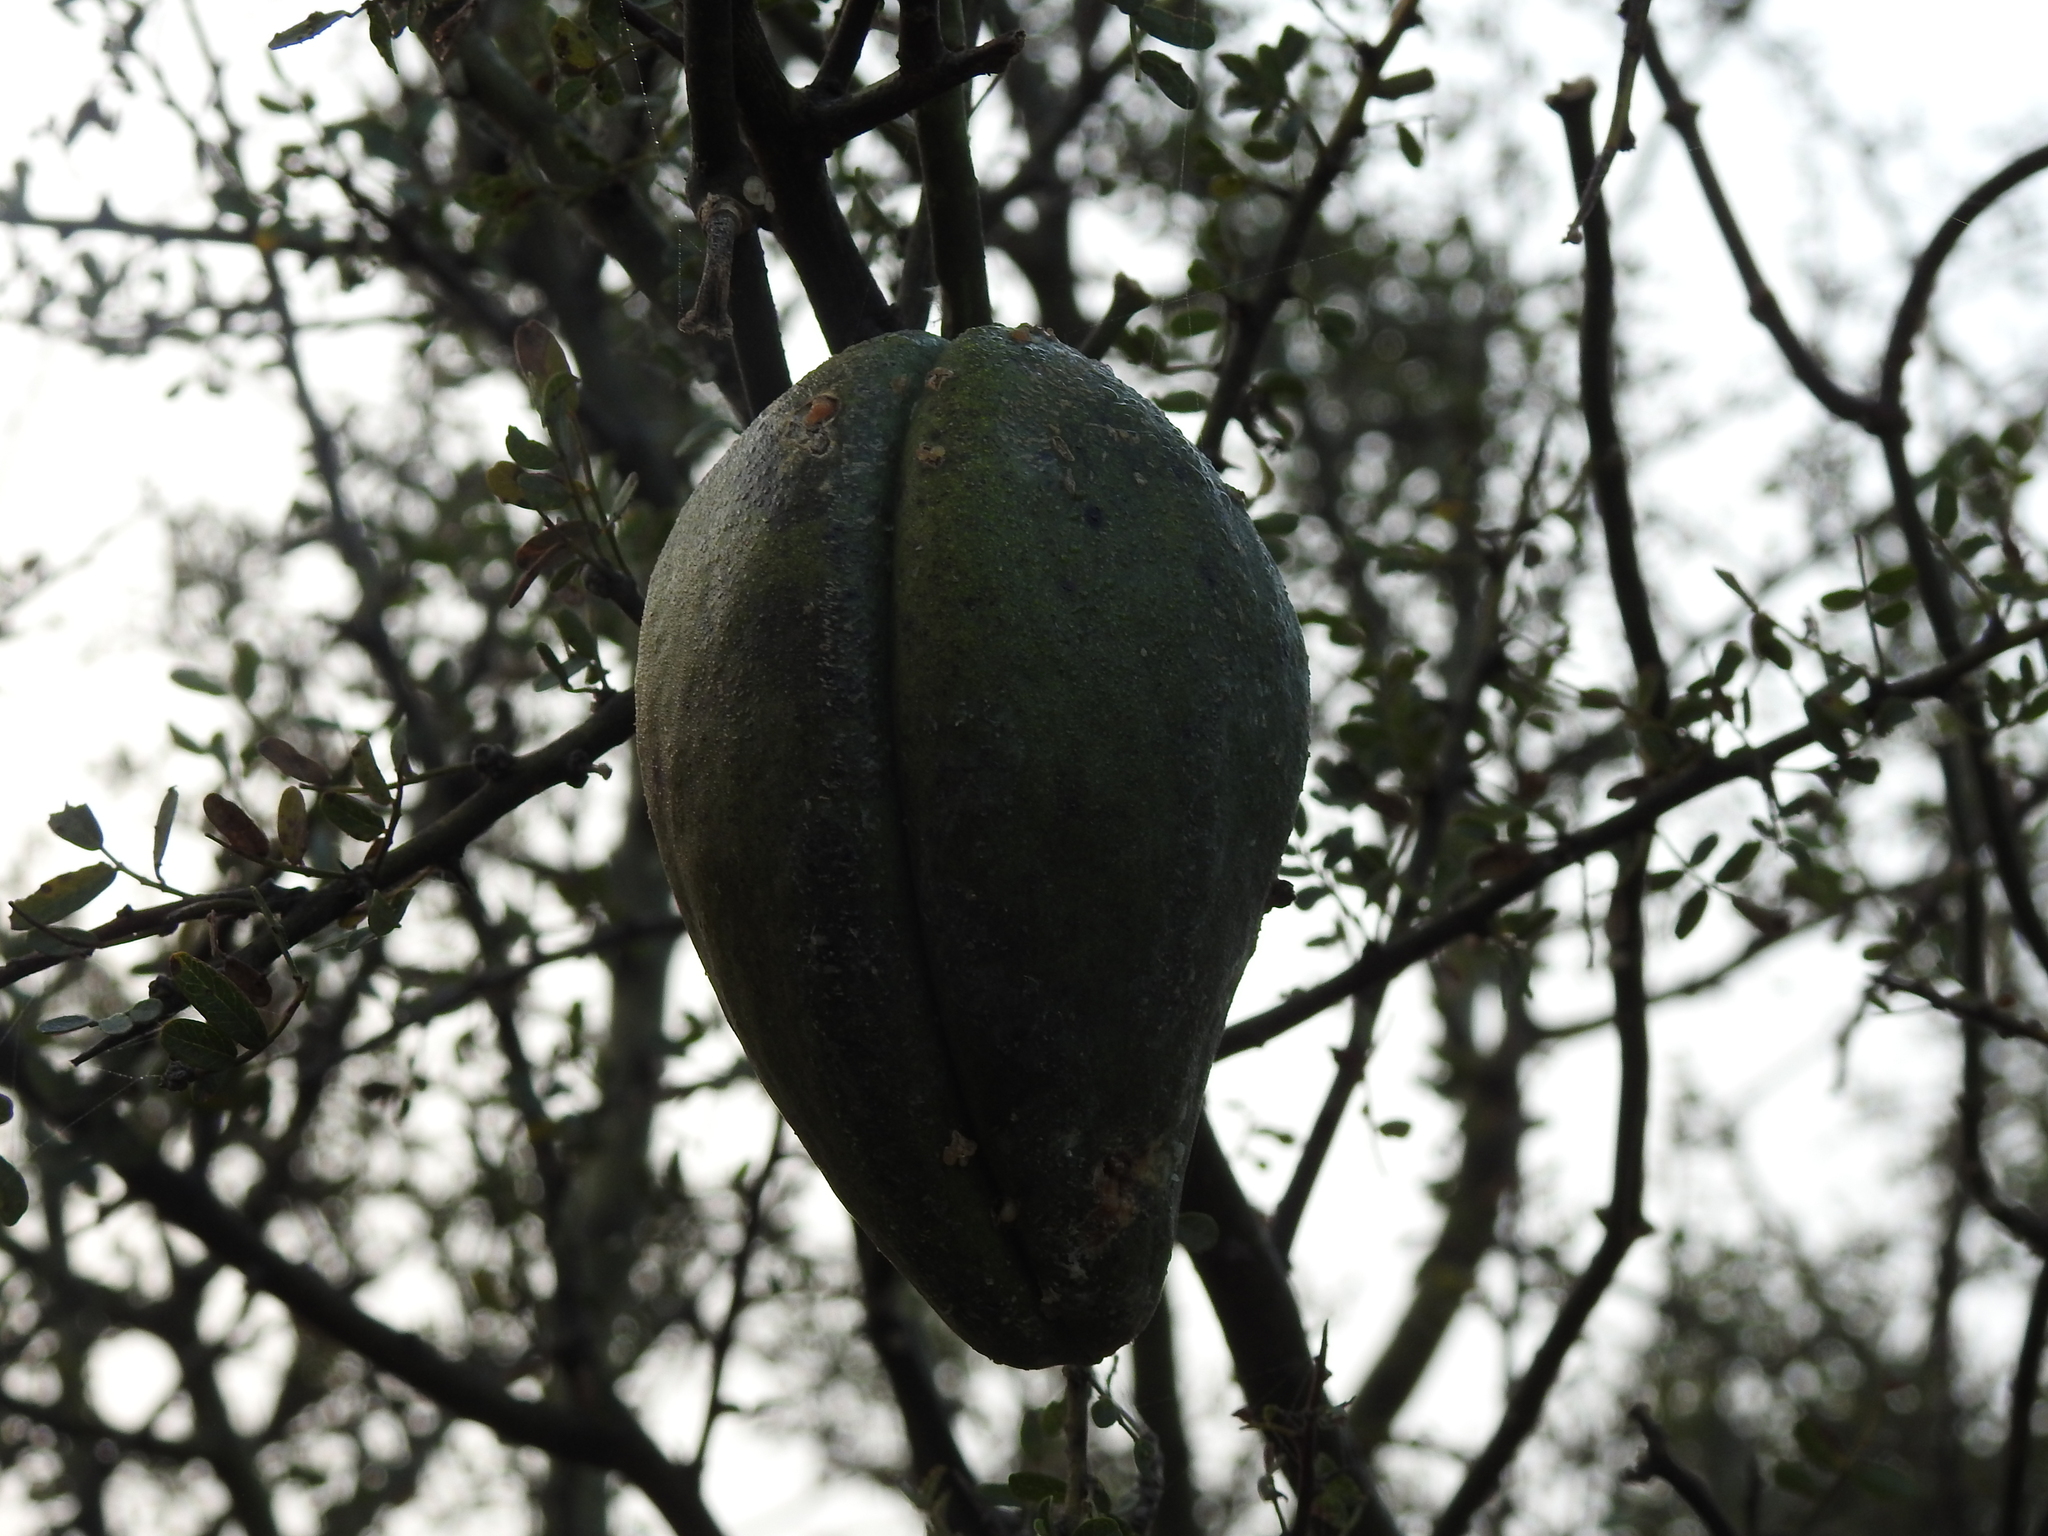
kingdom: Plantae
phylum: Tracheophyta
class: Magnoliopsida
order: Gentianales
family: Apocynaceae
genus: Araujia
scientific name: Araujia sericifera
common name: White bladderflower
